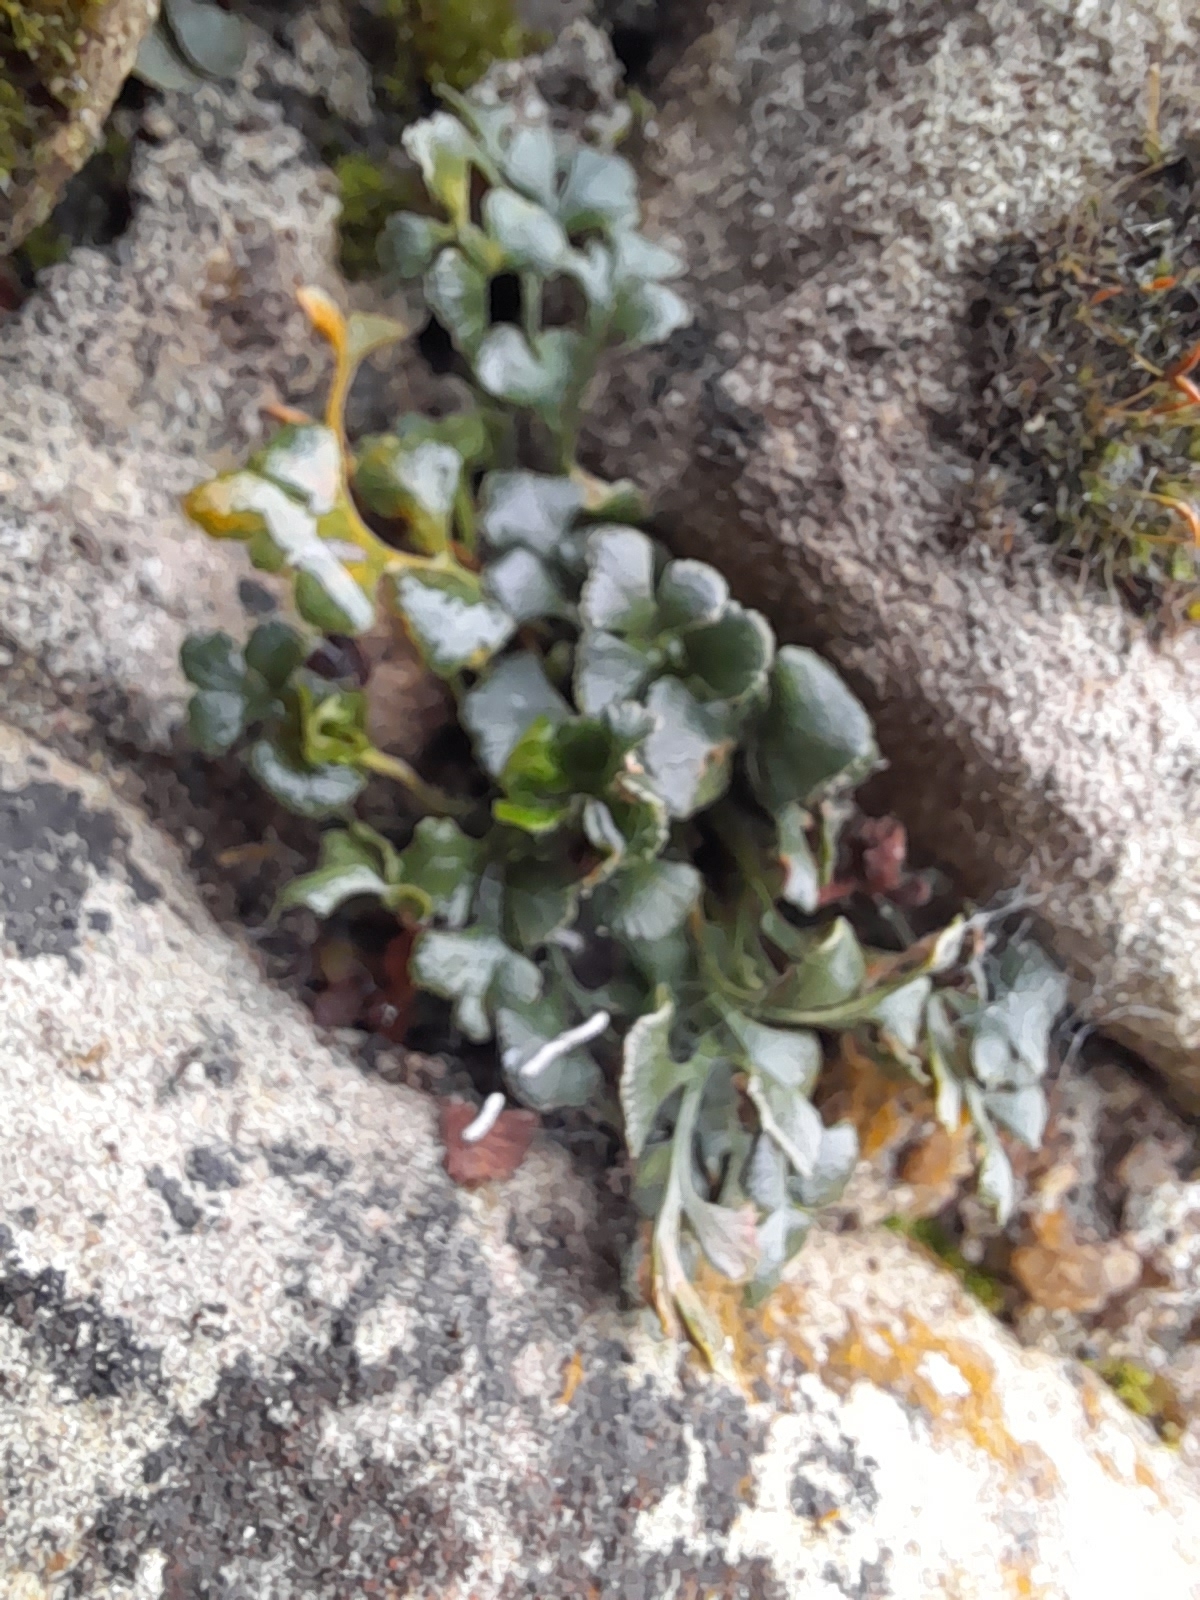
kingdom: Plantae
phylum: Tracheophyta
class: Polypodiopsida
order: Polypodiales
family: Aspleniaceae
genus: Asplenium
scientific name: Asplenium ruta-muraria
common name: Wall-rue
